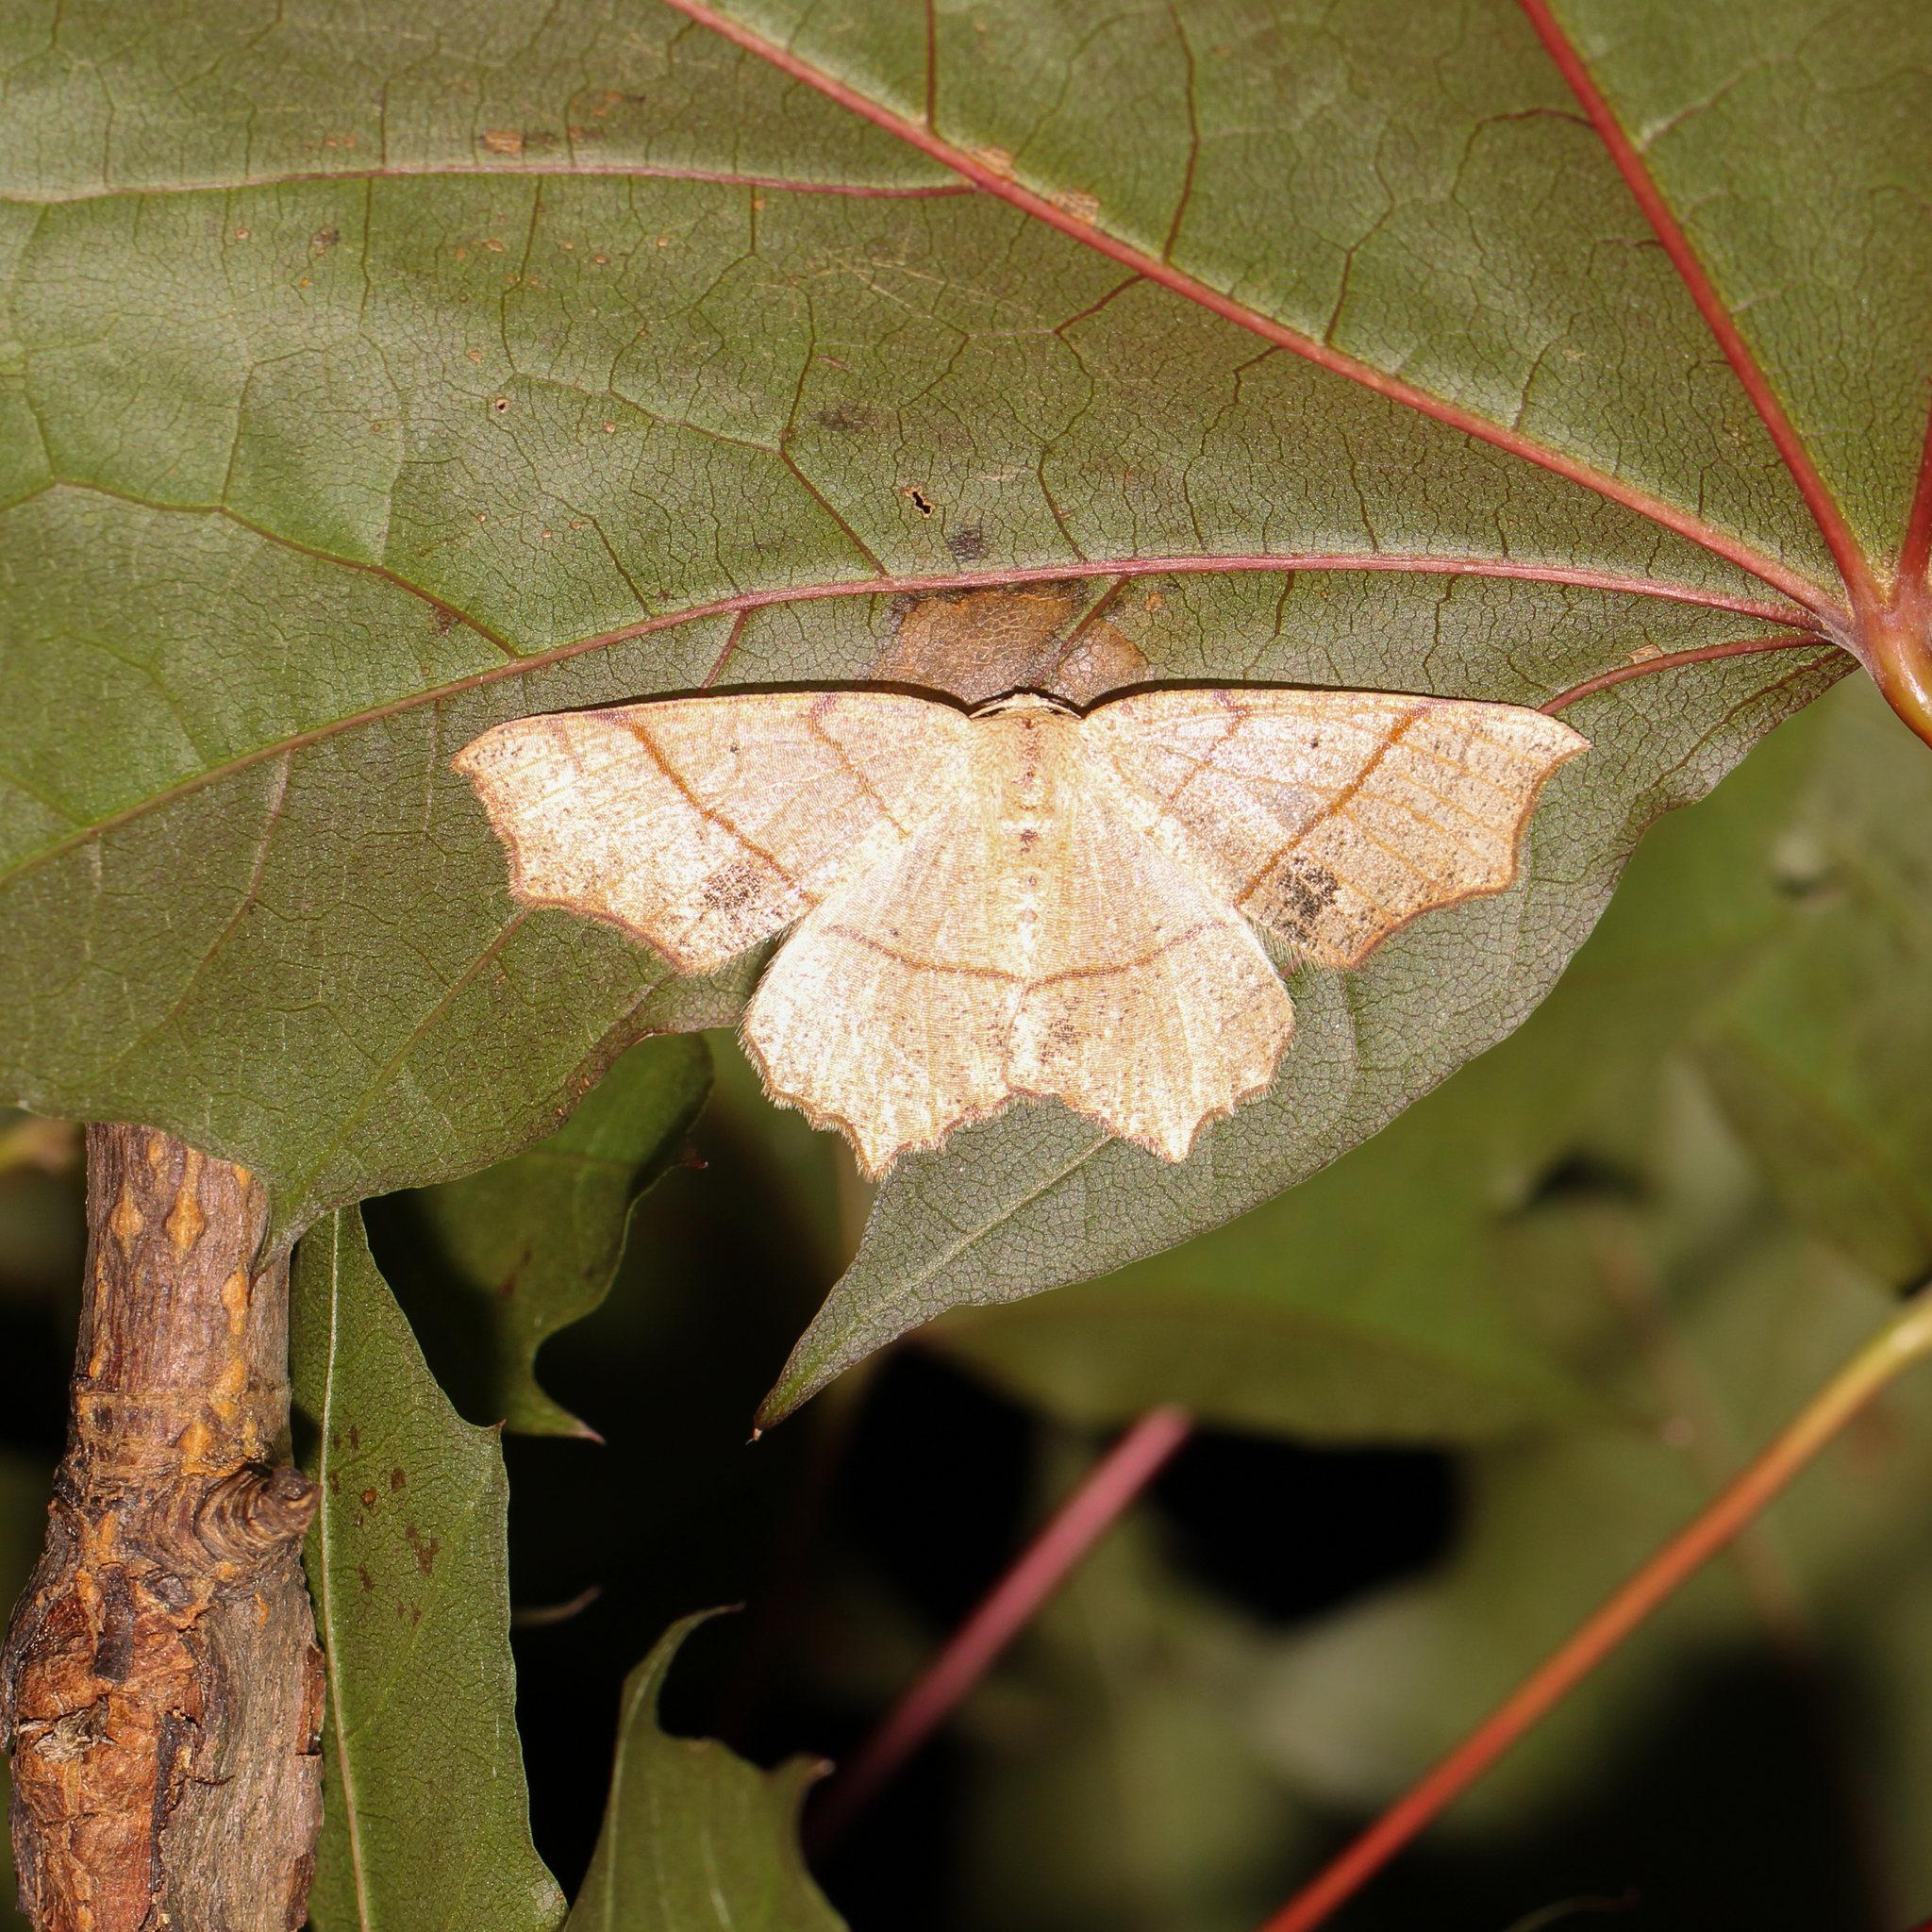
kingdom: Animalia
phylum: Arthropoda
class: Insecta
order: Lepidoptera
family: Geometridae
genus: Besma
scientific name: Besma quercivoraria
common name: Oak besma
